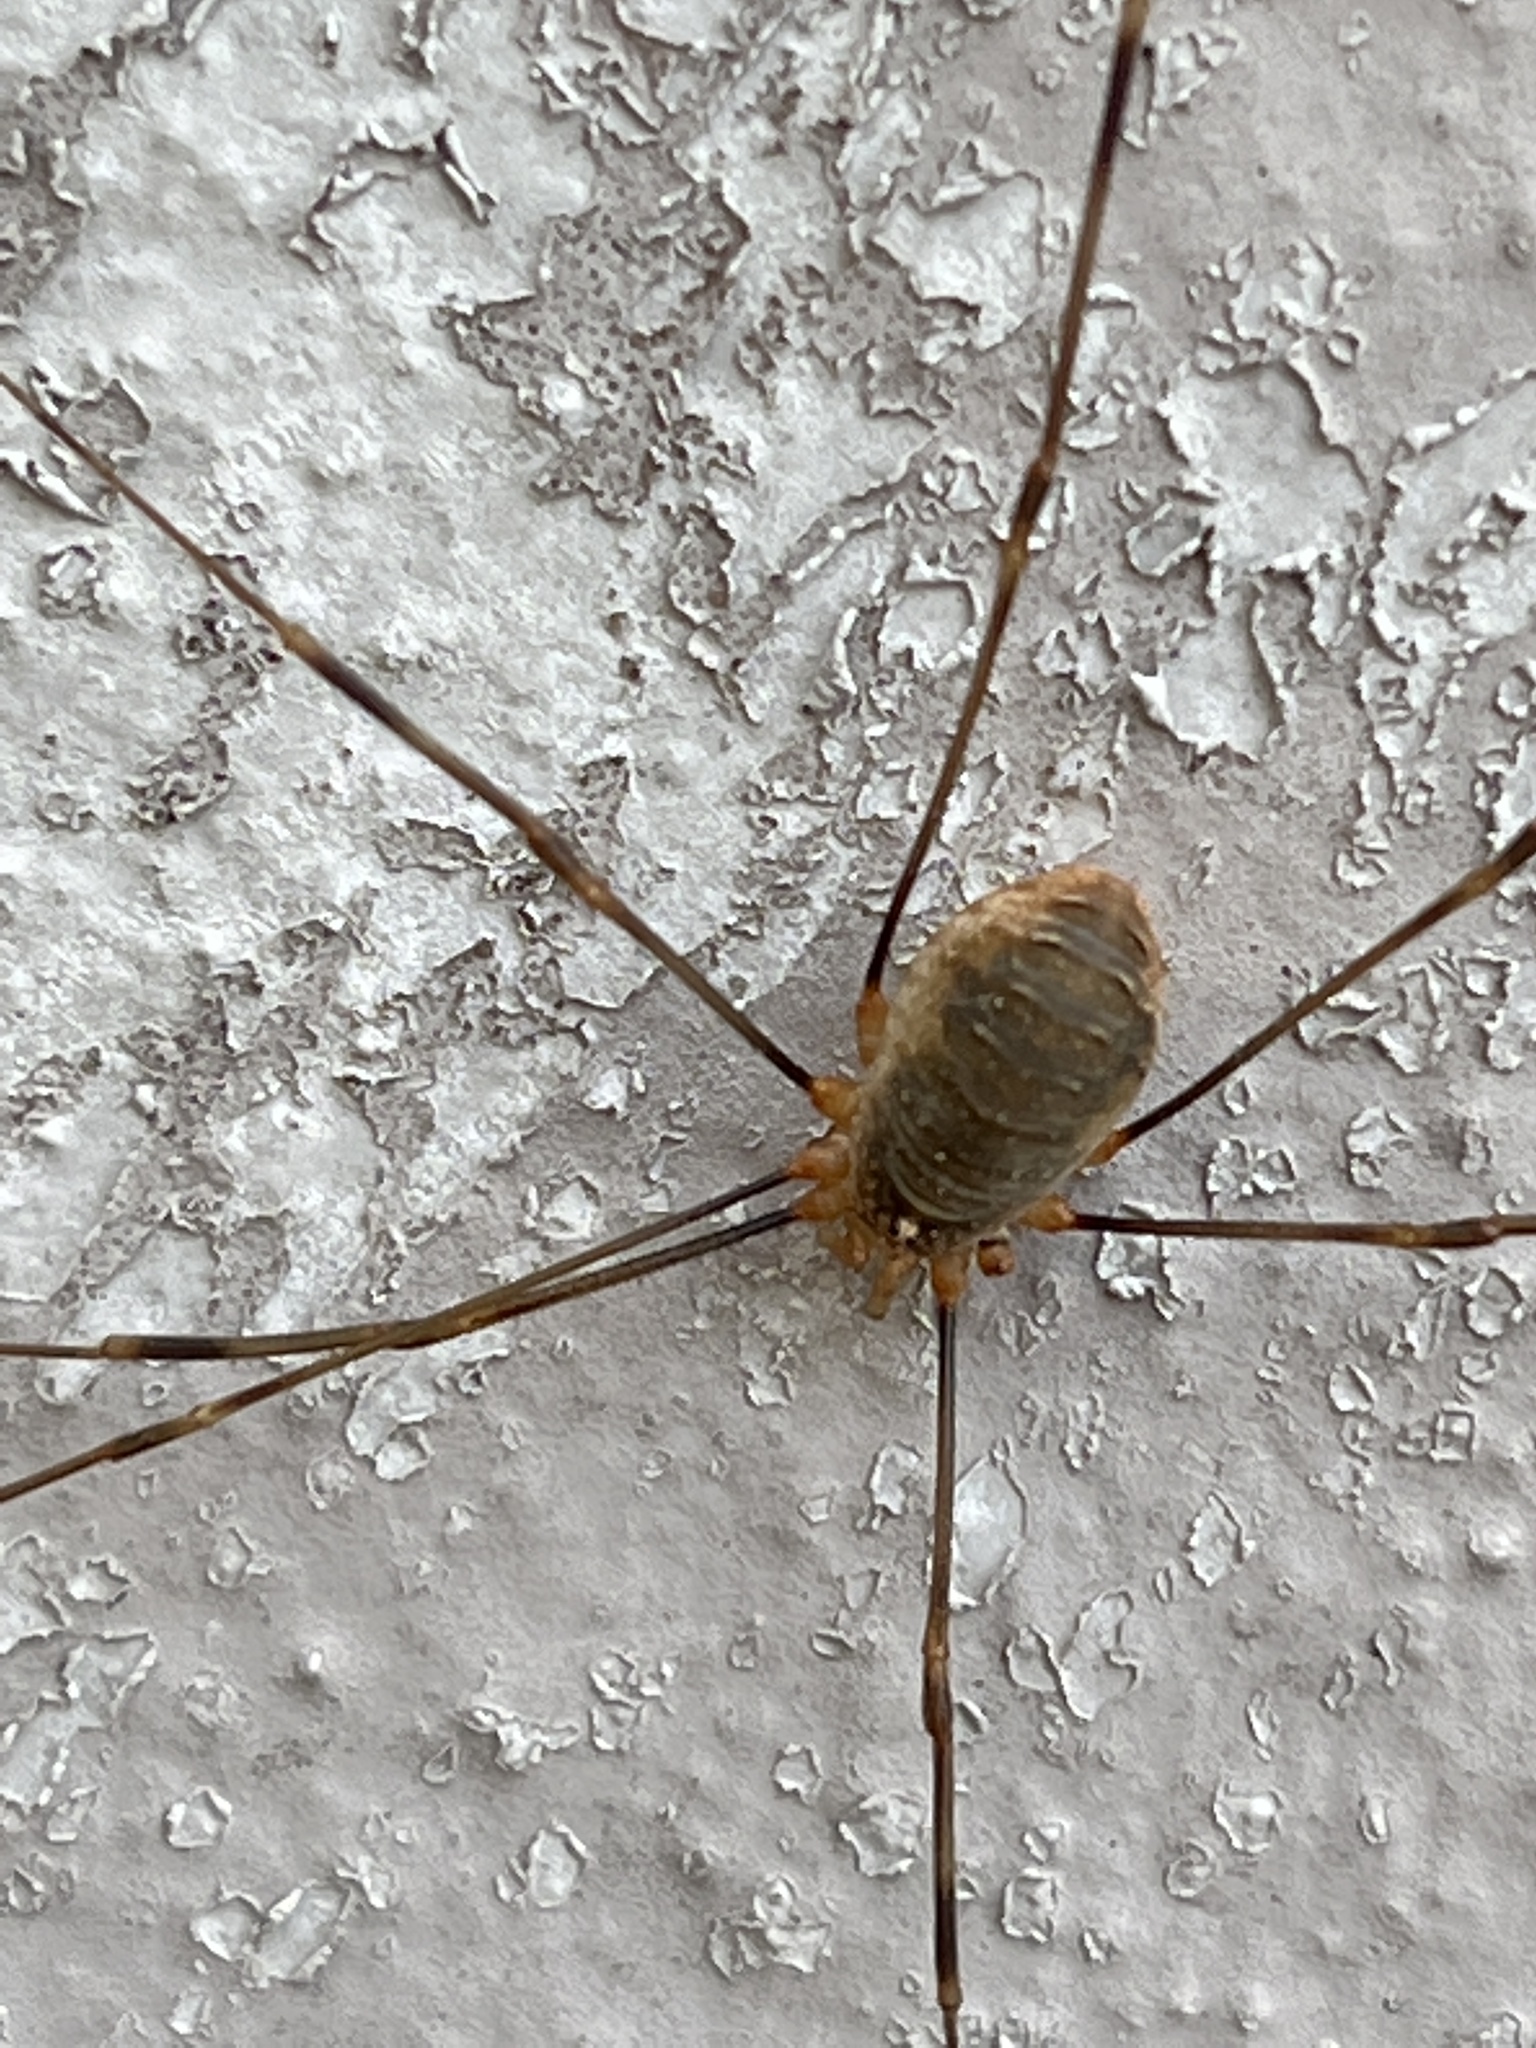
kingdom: Animalia
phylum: Arthropoda
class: Arachnida
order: Opiliones
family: Phalangiidae
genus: Opilio
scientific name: Opilio canestrinii
